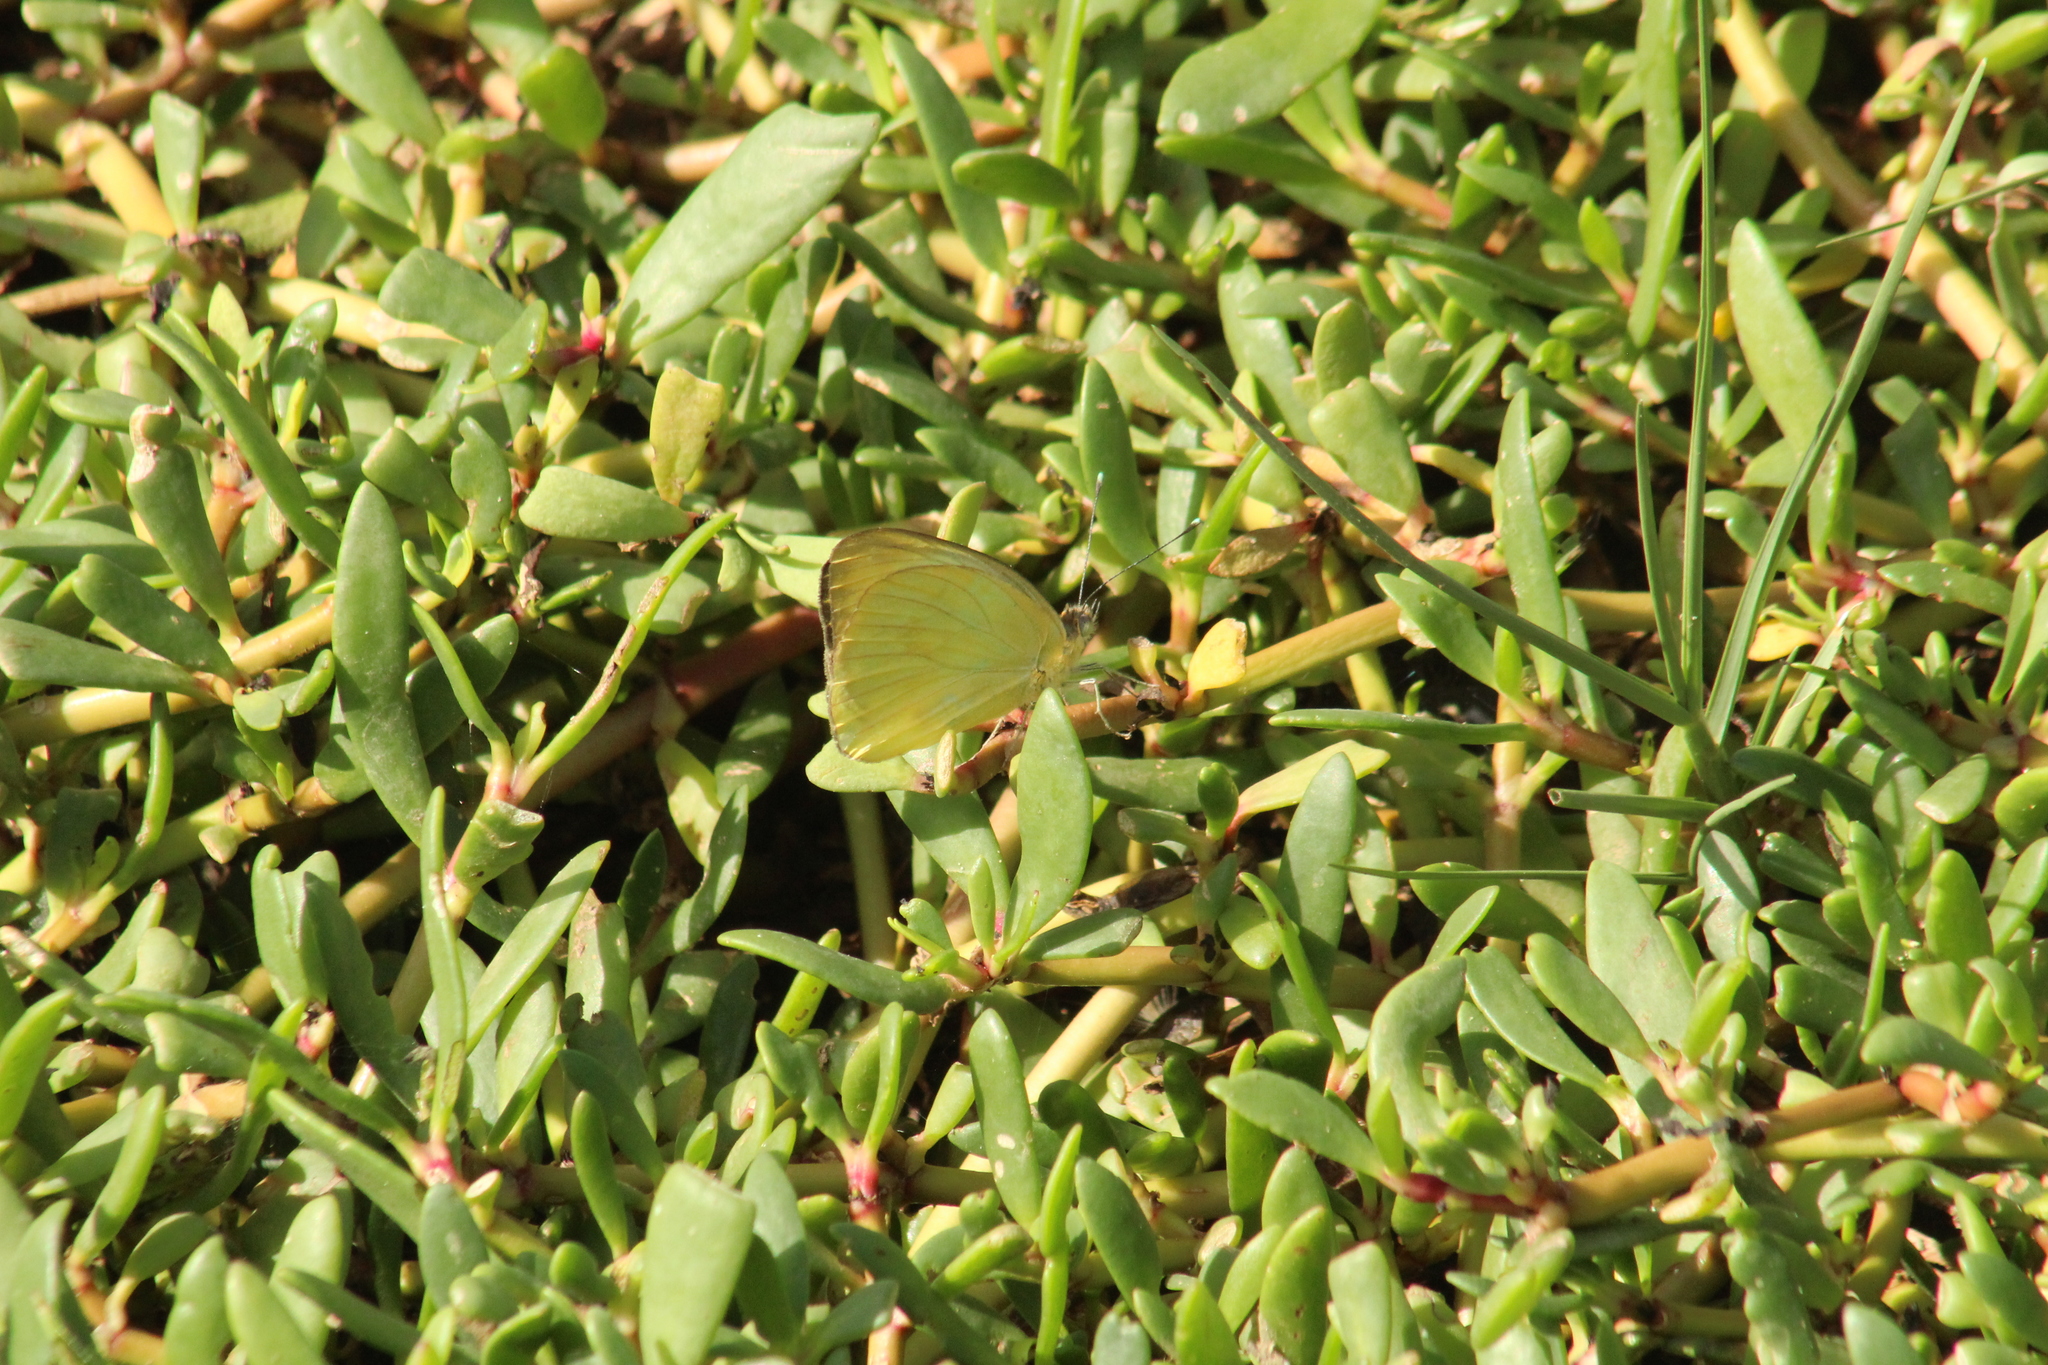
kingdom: Animalia
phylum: Arthropoda
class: Insecta
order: Lepidoptera
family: Pieridae
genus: Ascia
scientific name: Ascia monuste
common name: Great southern white
